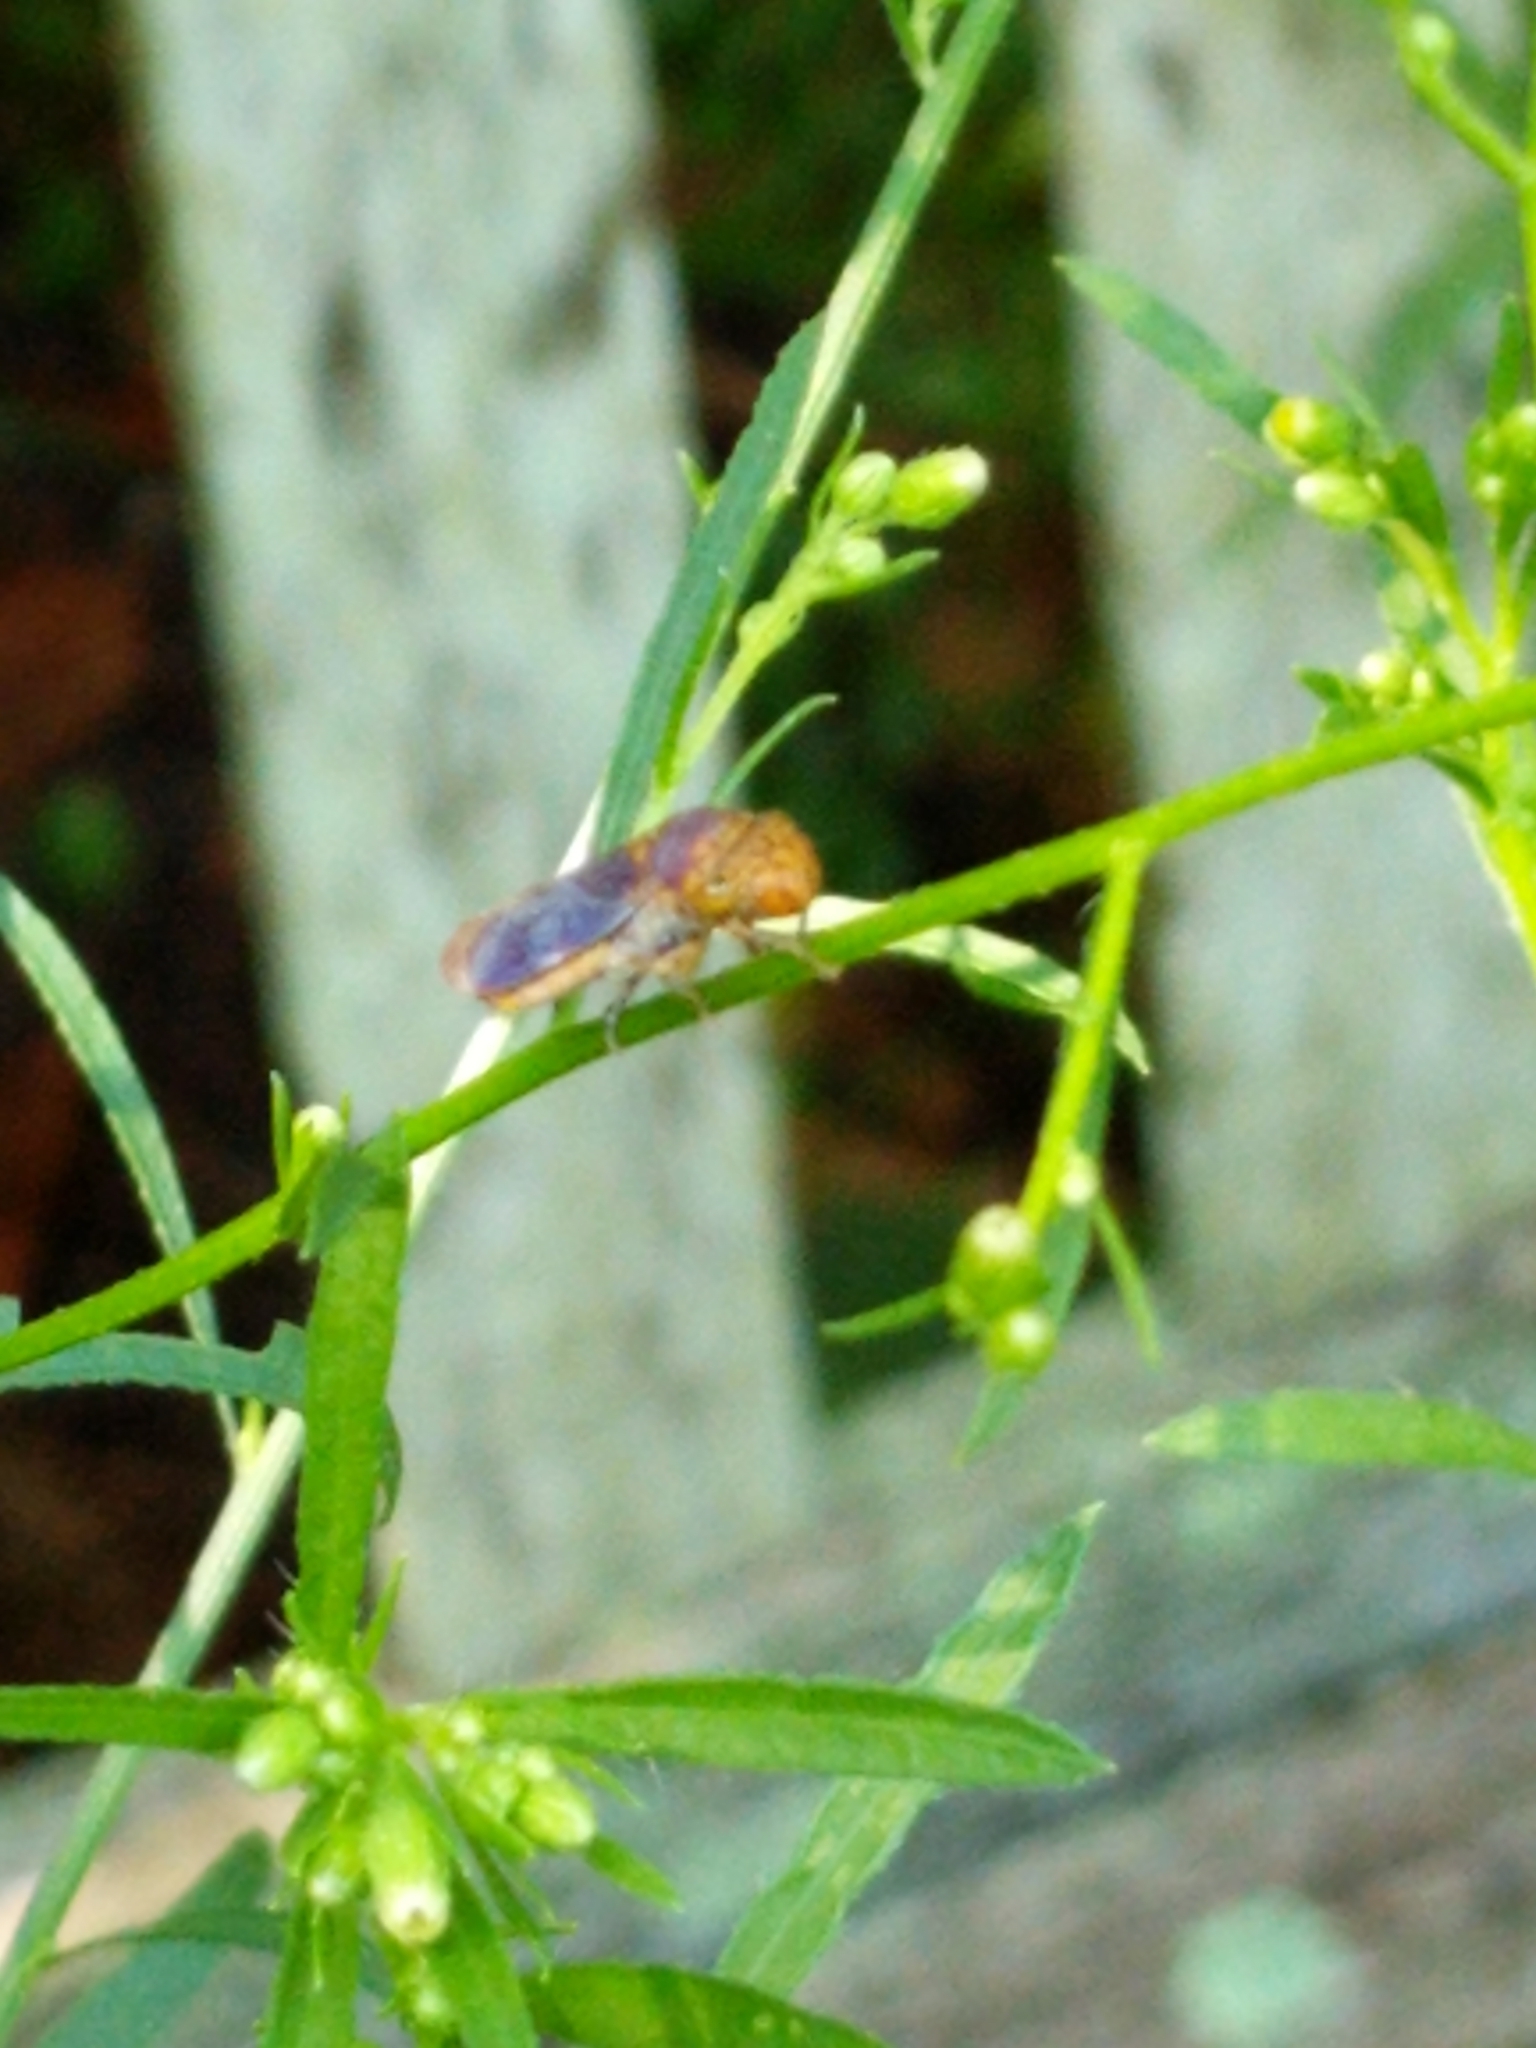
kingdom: Animalia
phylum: Arthropoda
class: Insecta
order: Hemiptera
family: Cicadellidae
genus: Oncometopia
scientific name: Oncometopia orbona
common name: Broad-headed sharpshooter
